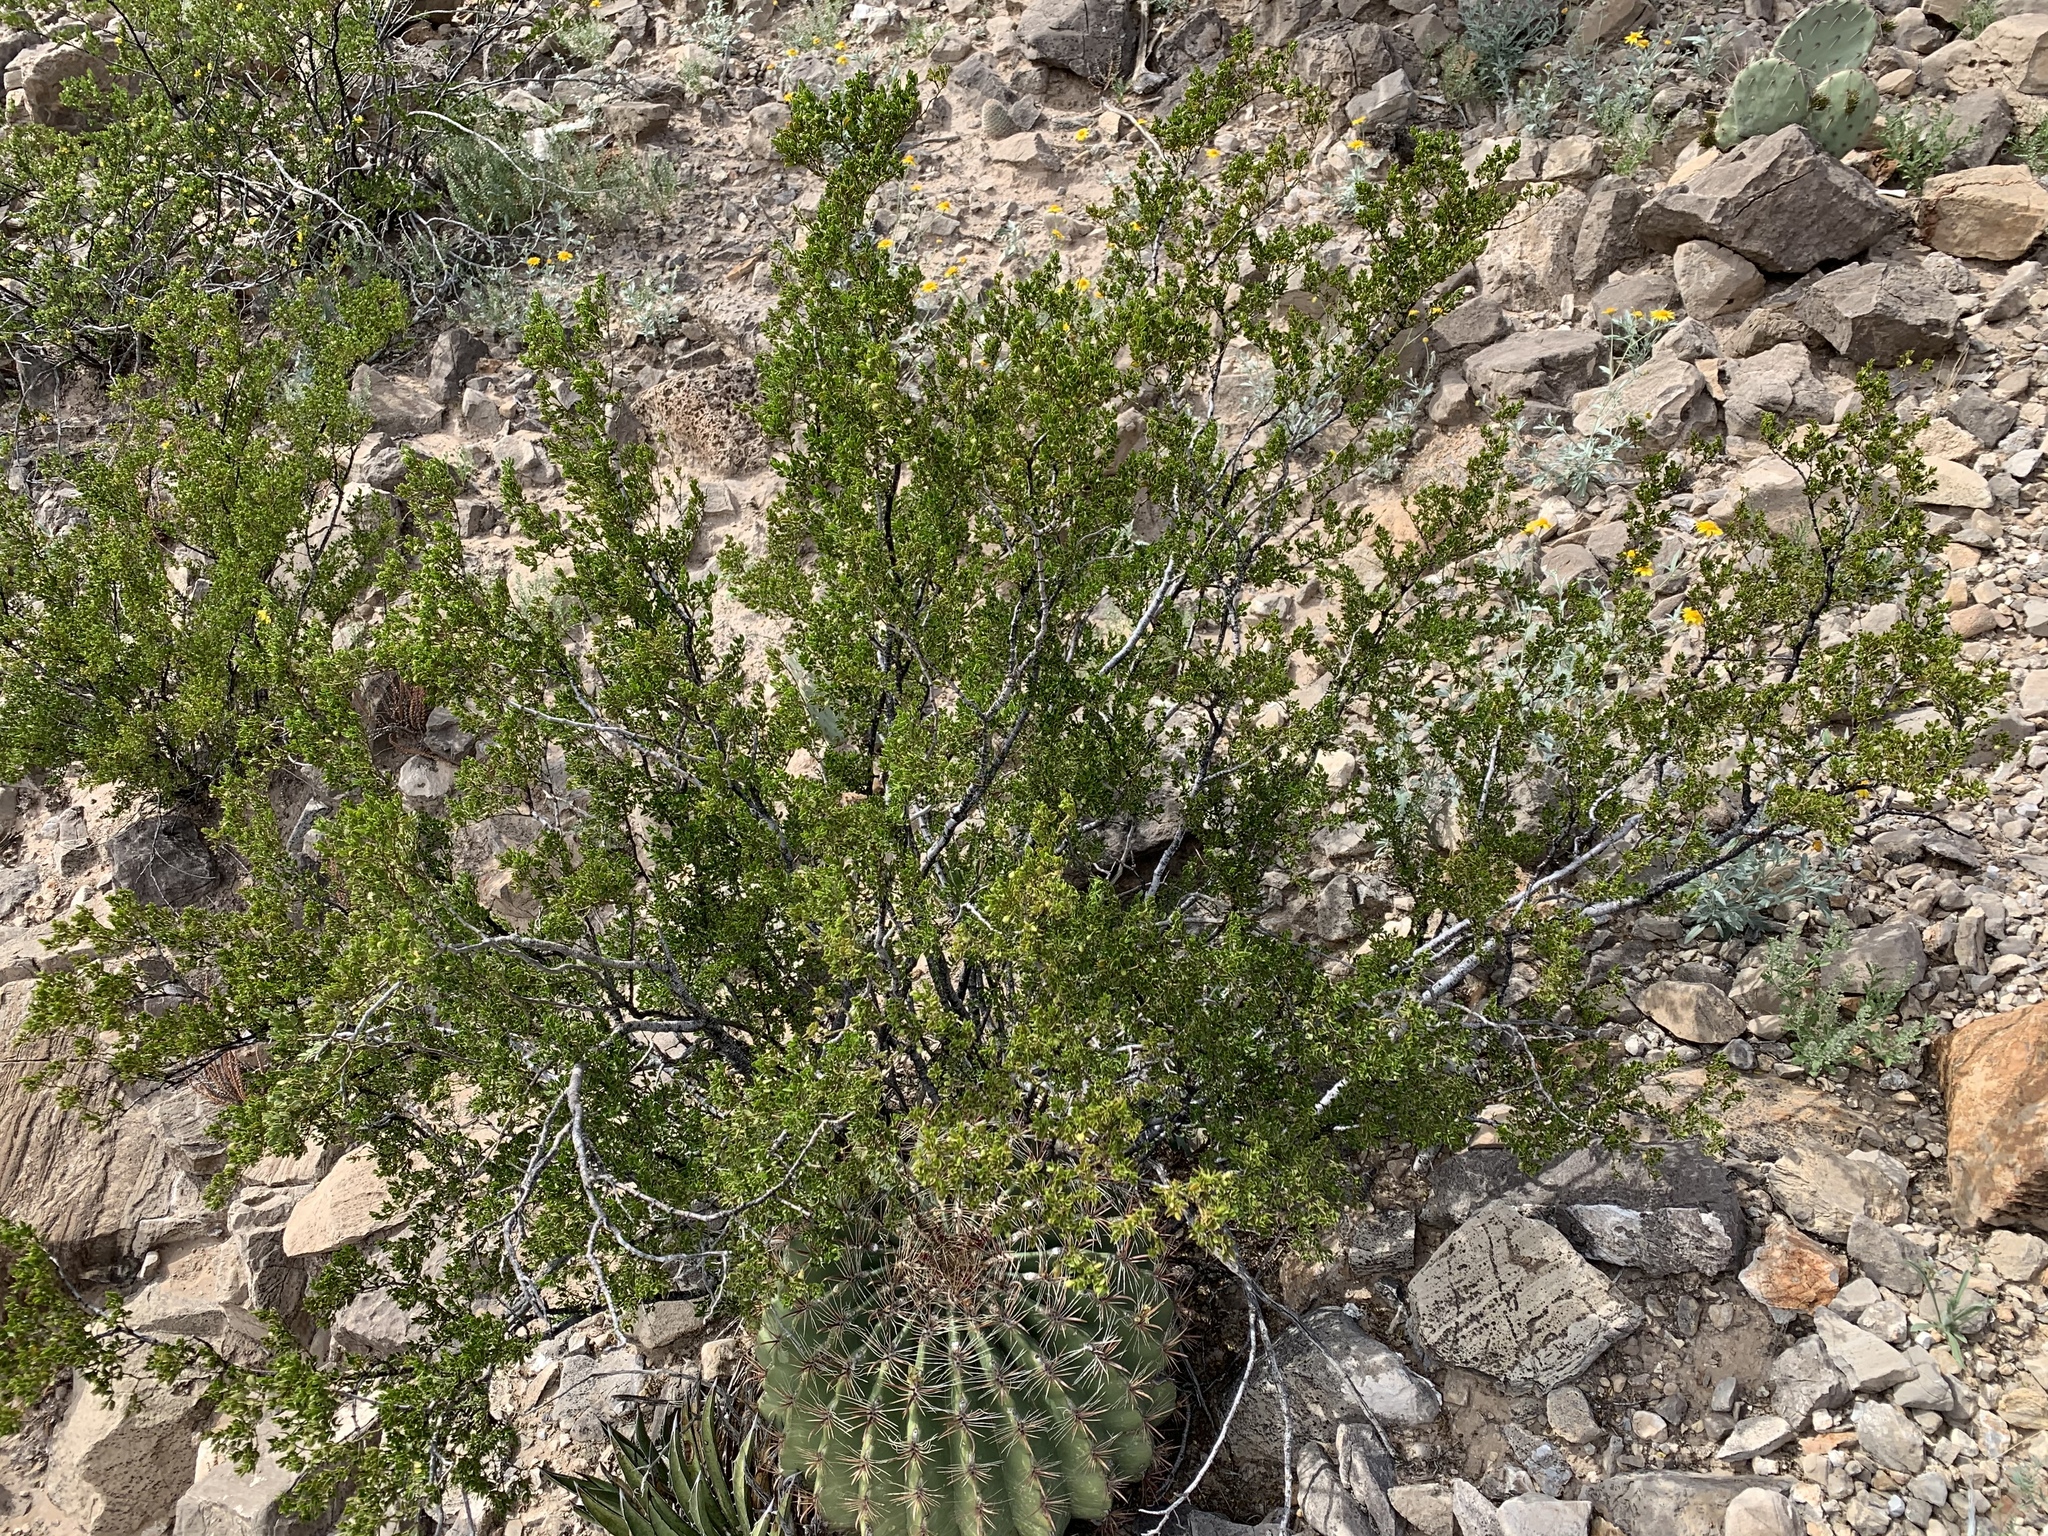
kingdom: Plantae
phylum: Tracheophyta
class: Magnoliopsida
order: Zygophyllales
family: Zygophyllaceae
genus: Larrea
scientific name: Larrea tridentata
